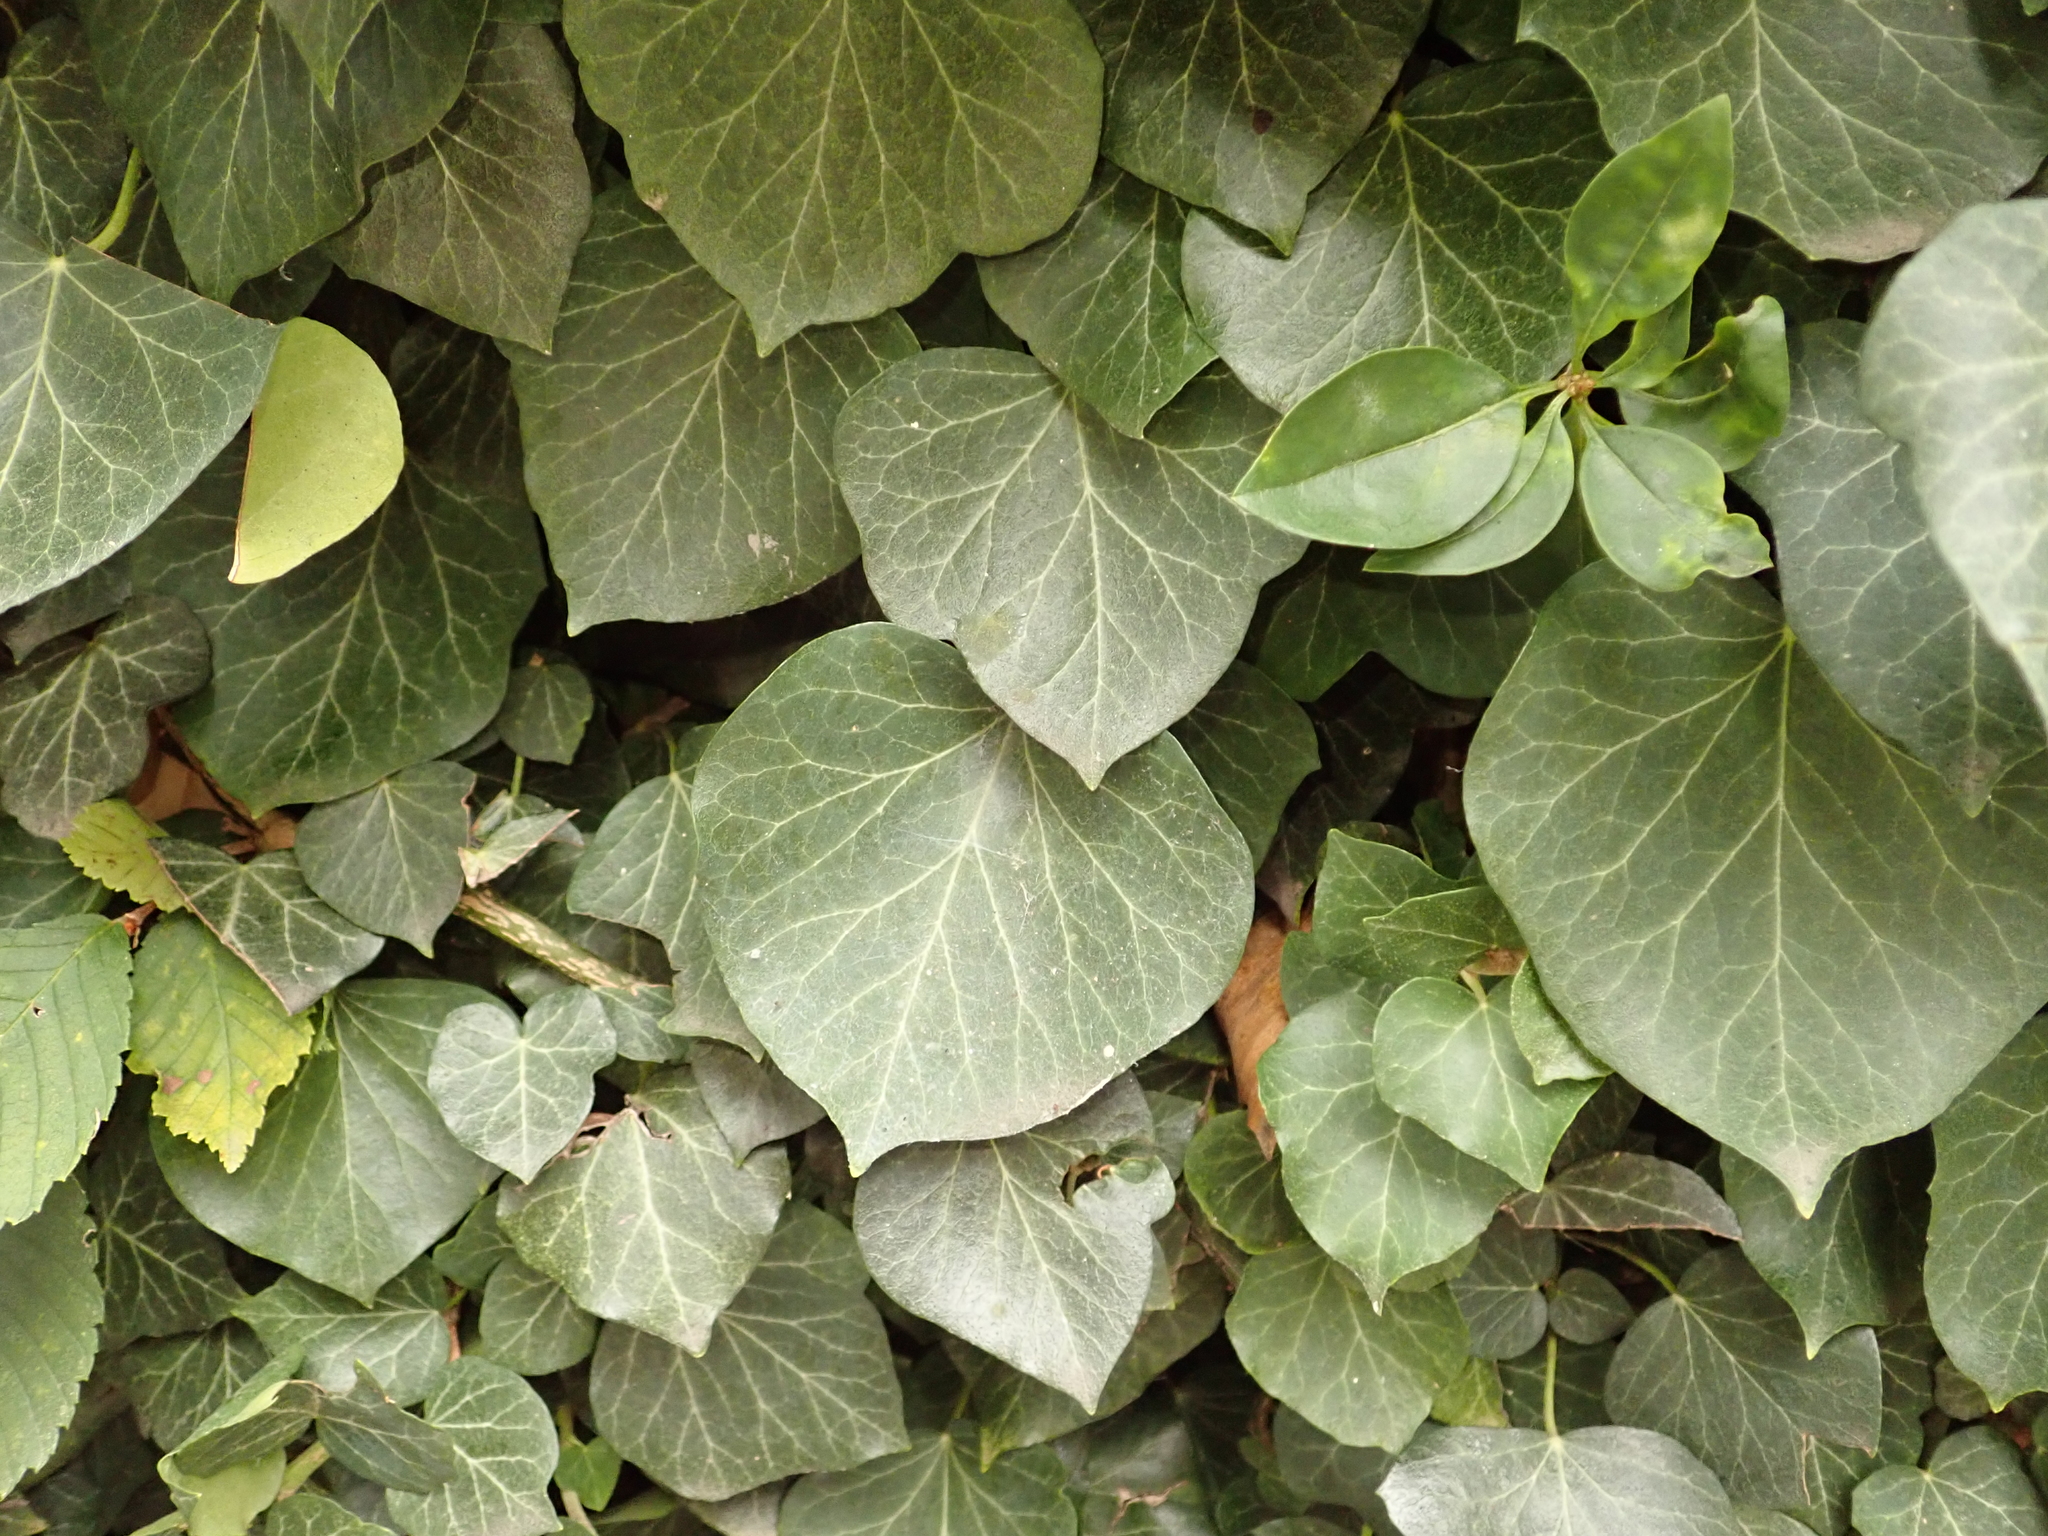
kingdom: Plantae
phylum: Tracheophyta
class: Magnoliopsida
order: Apiales
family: Araliaceae
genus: Hedera
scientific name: Hedera helix
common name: Ivy
